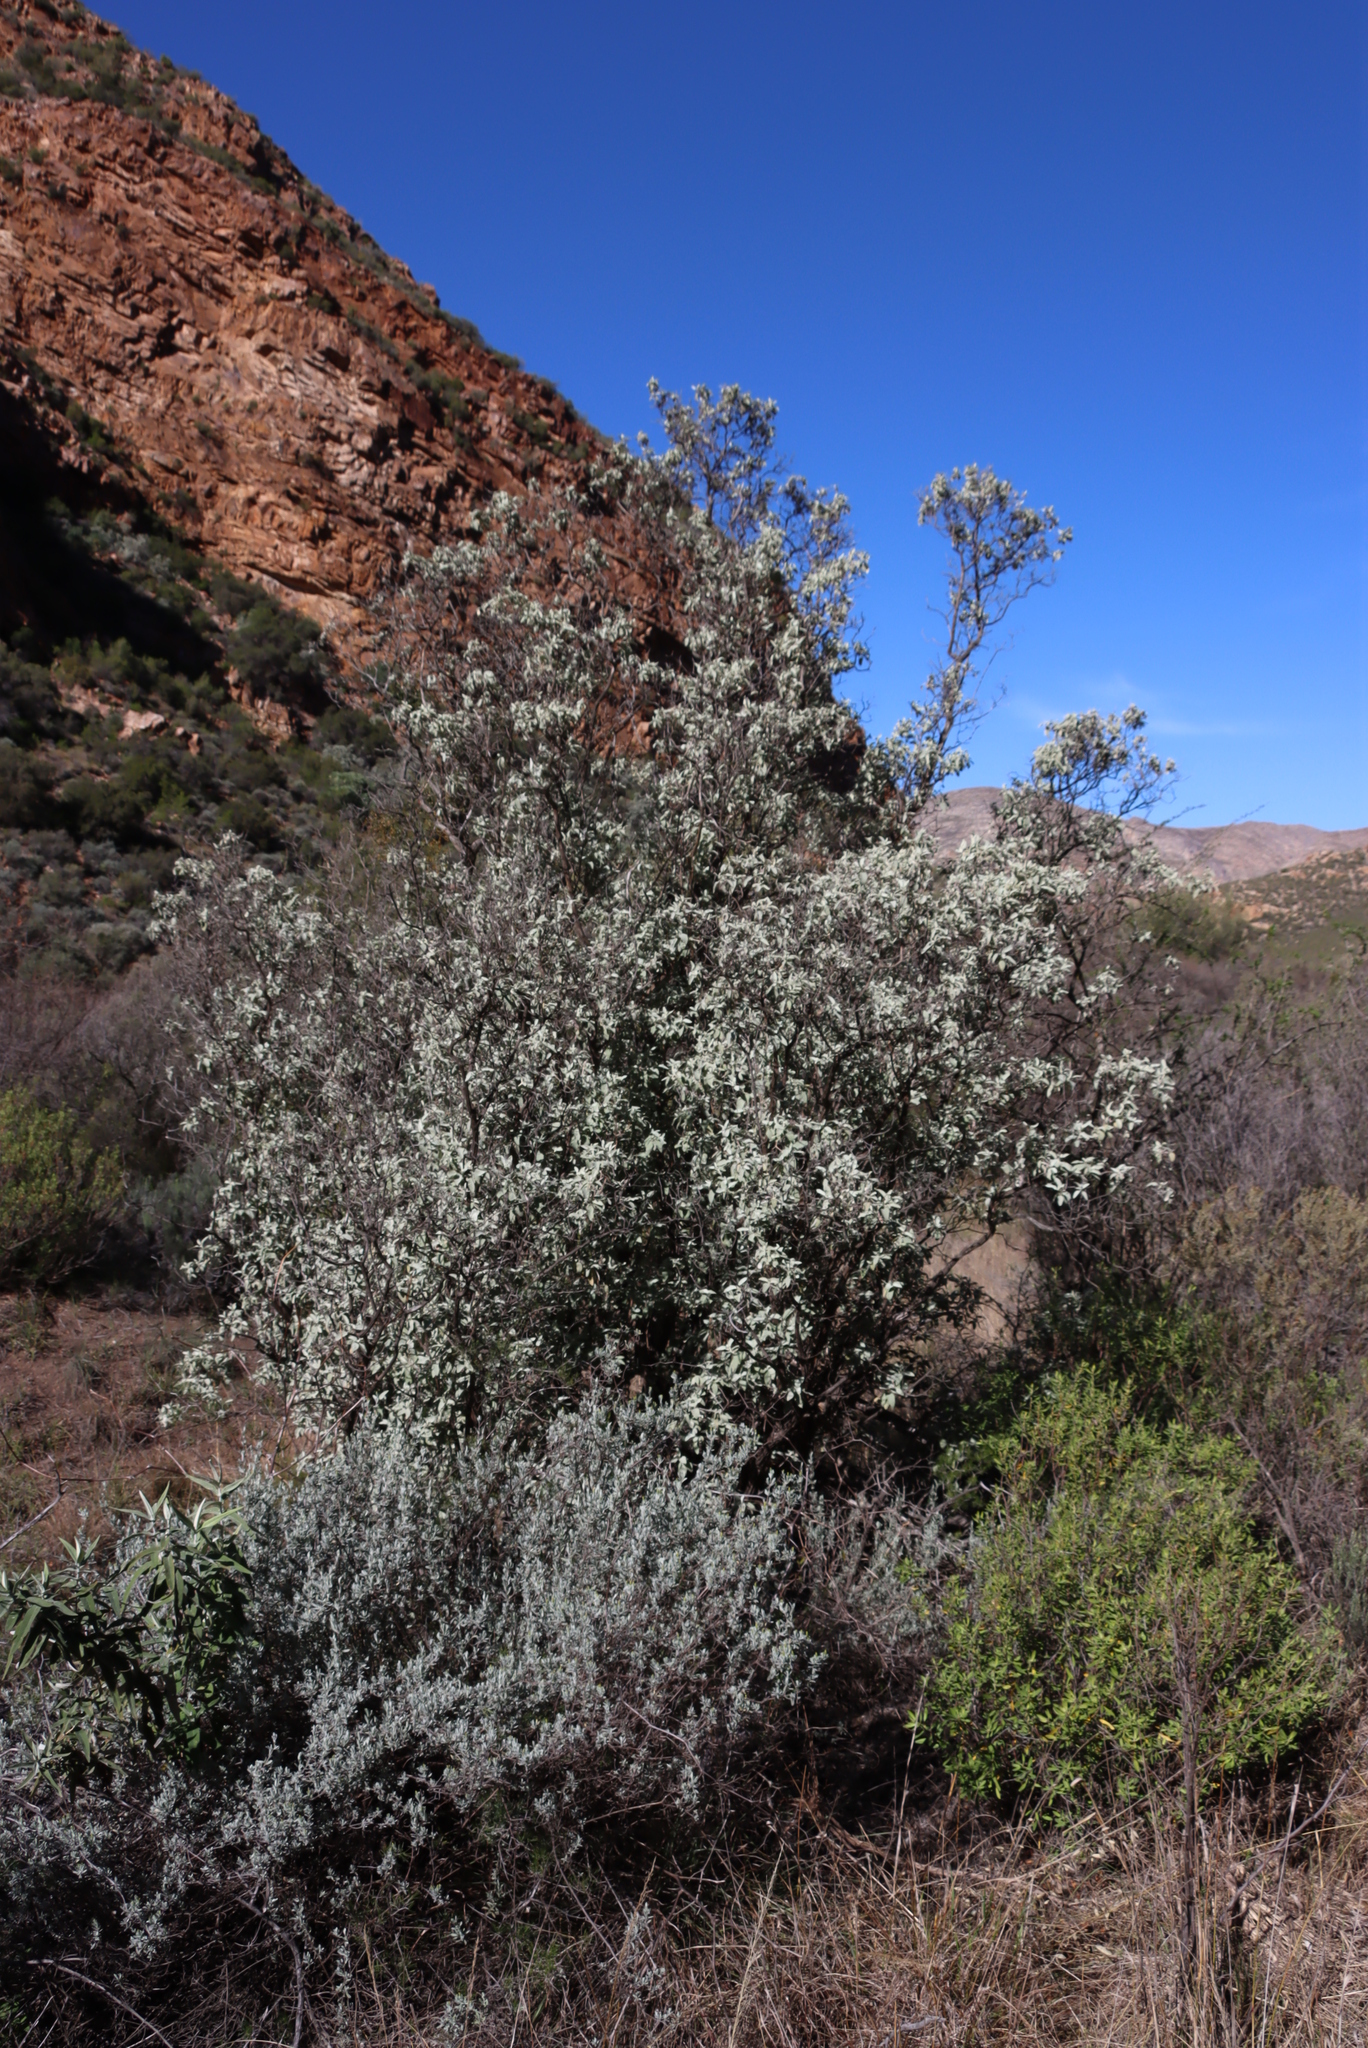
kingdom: Plantae
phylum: Tracheophyta
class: Magnoliopsida
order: Lamiales
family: Scrophulariaceae
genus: Buddleja
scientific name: Buddleja glomerata
